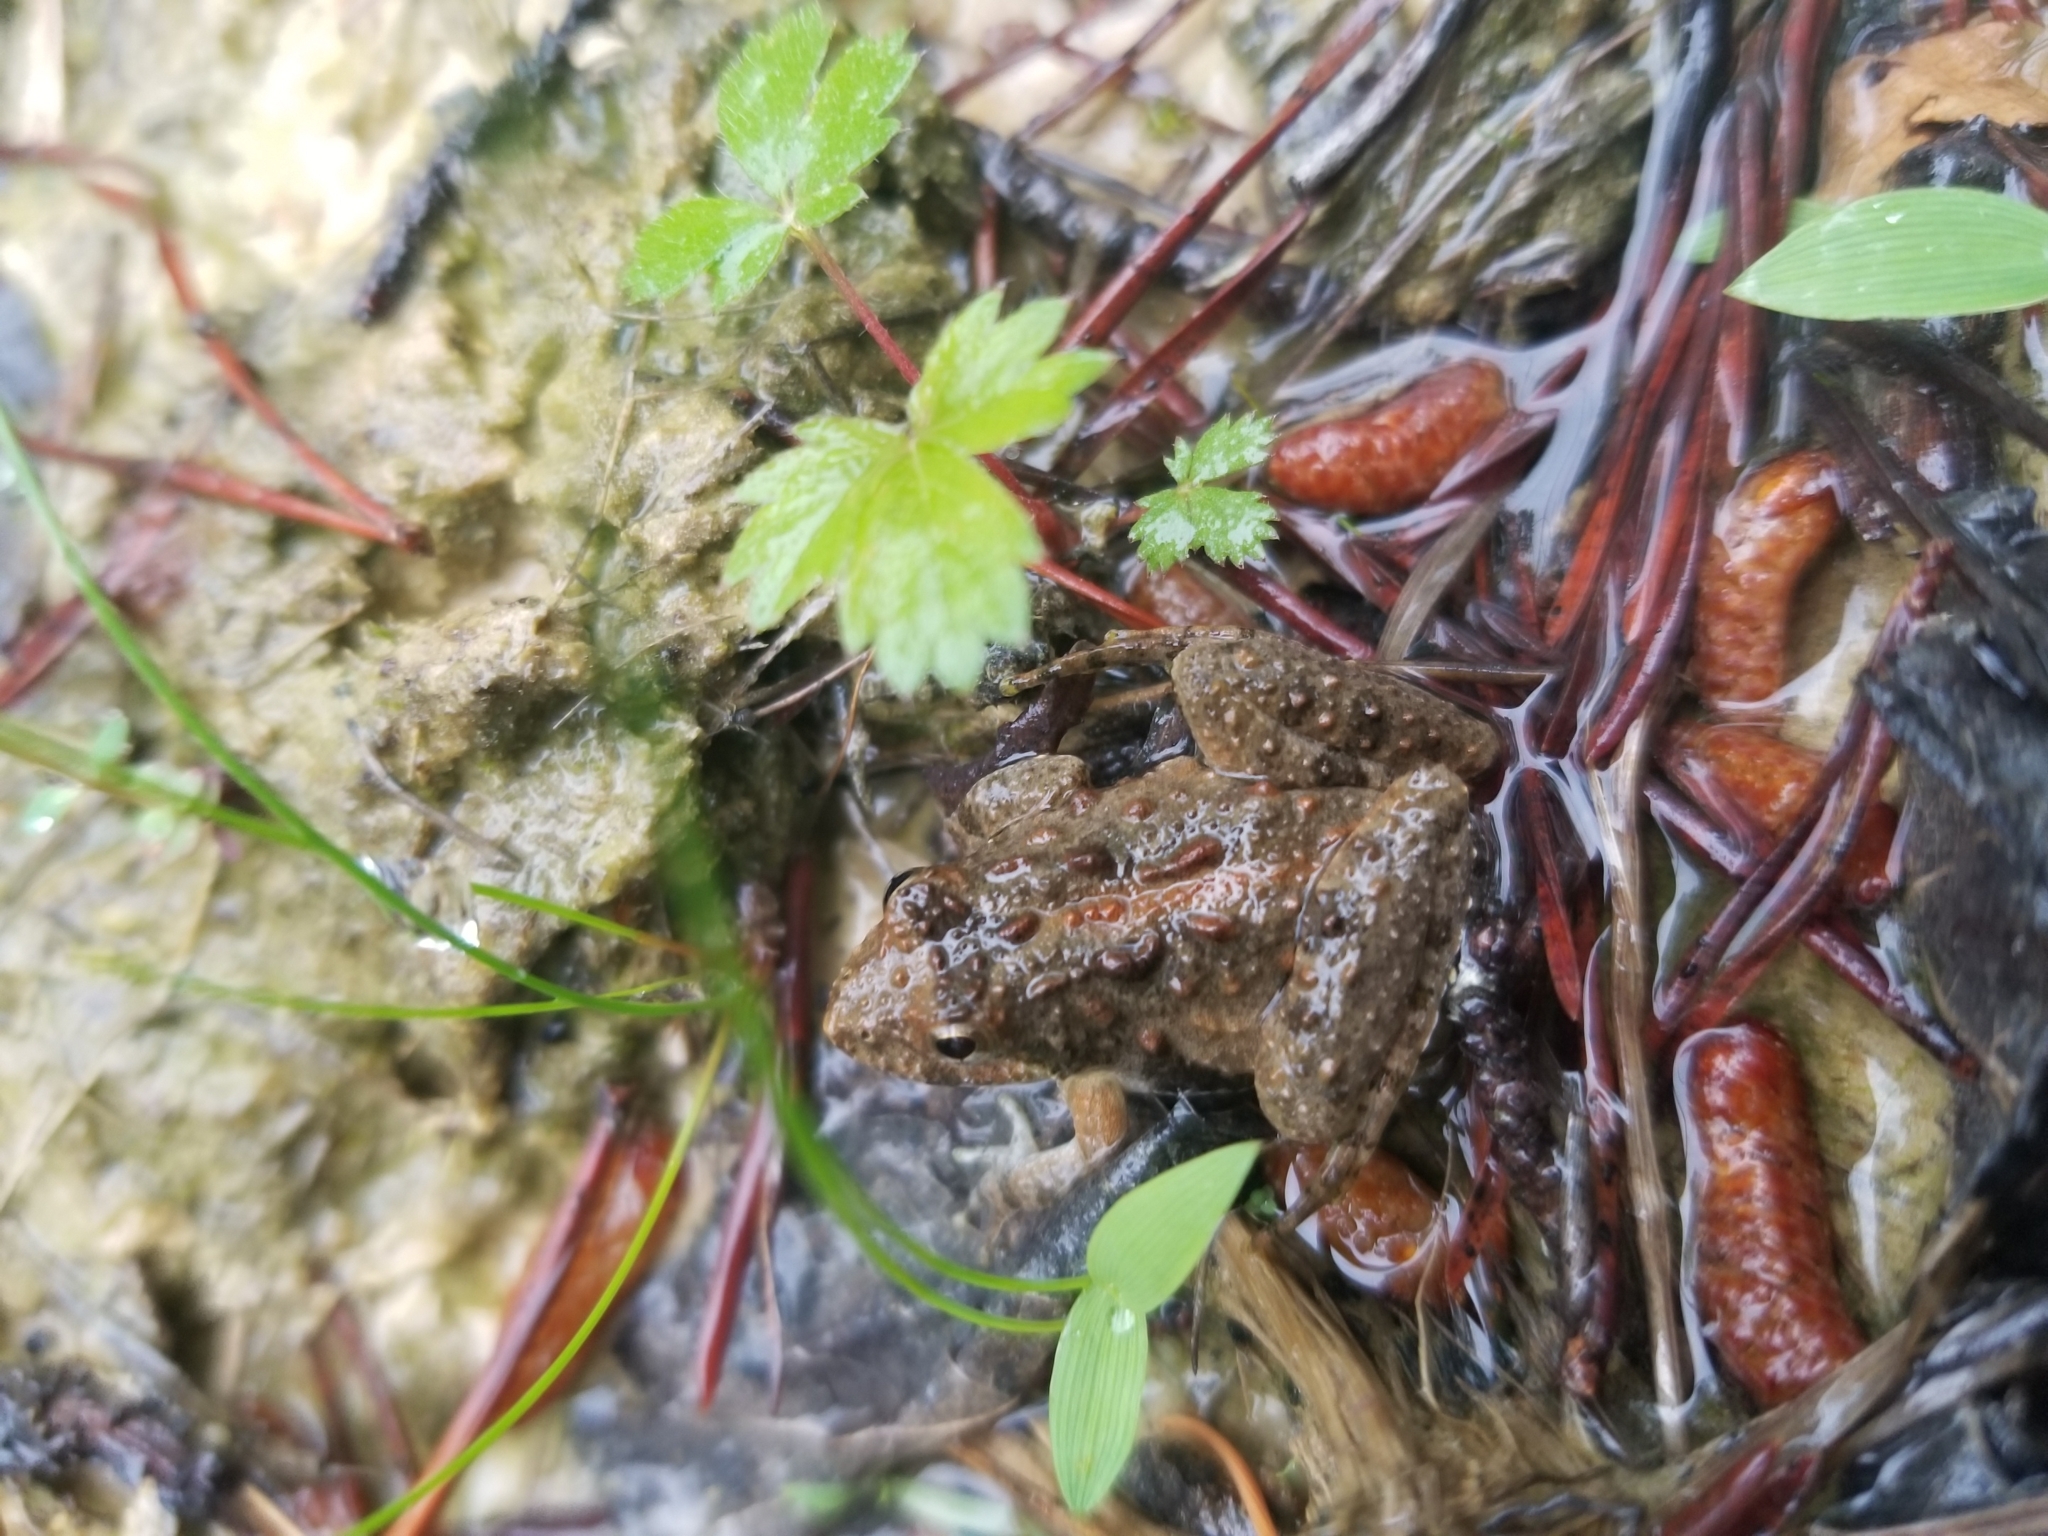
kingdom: Animalia
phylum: Chordata
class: Amphibia
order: Anura
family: Hylidae
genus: Acris
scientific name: Acris crepitans
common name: Northern cricket frog
